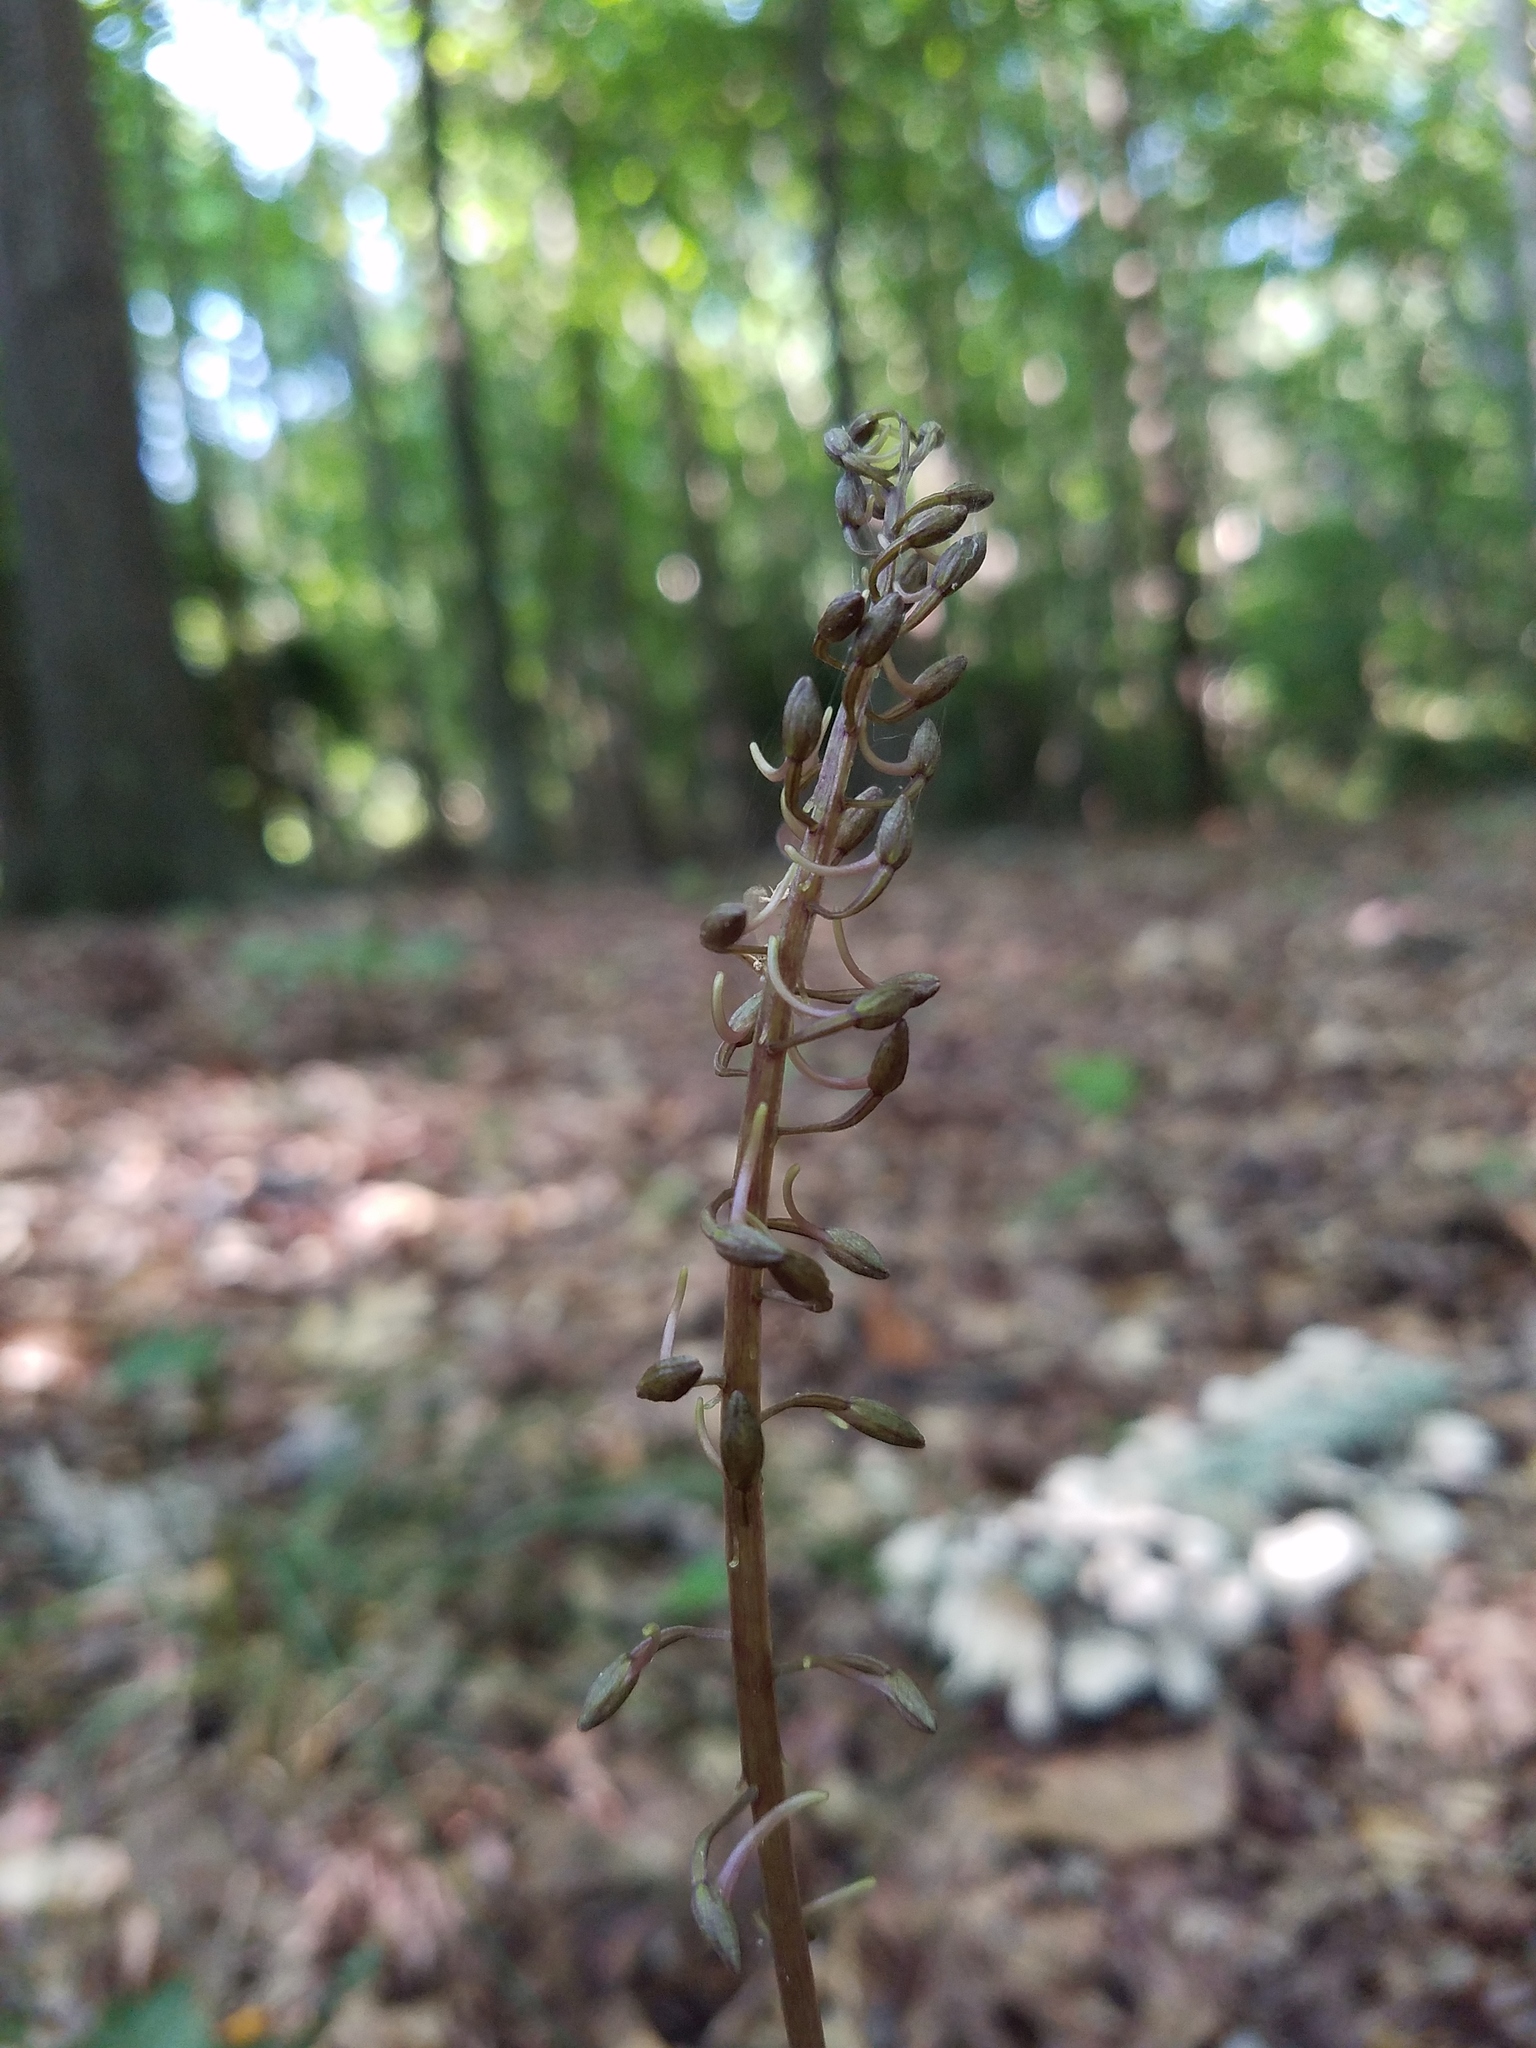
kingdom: Plantae
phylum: Tracheophyta
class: Liliopsida
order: Asparagales
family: Orchidaceae
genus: Tipularia
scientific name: Tipularia discolor
